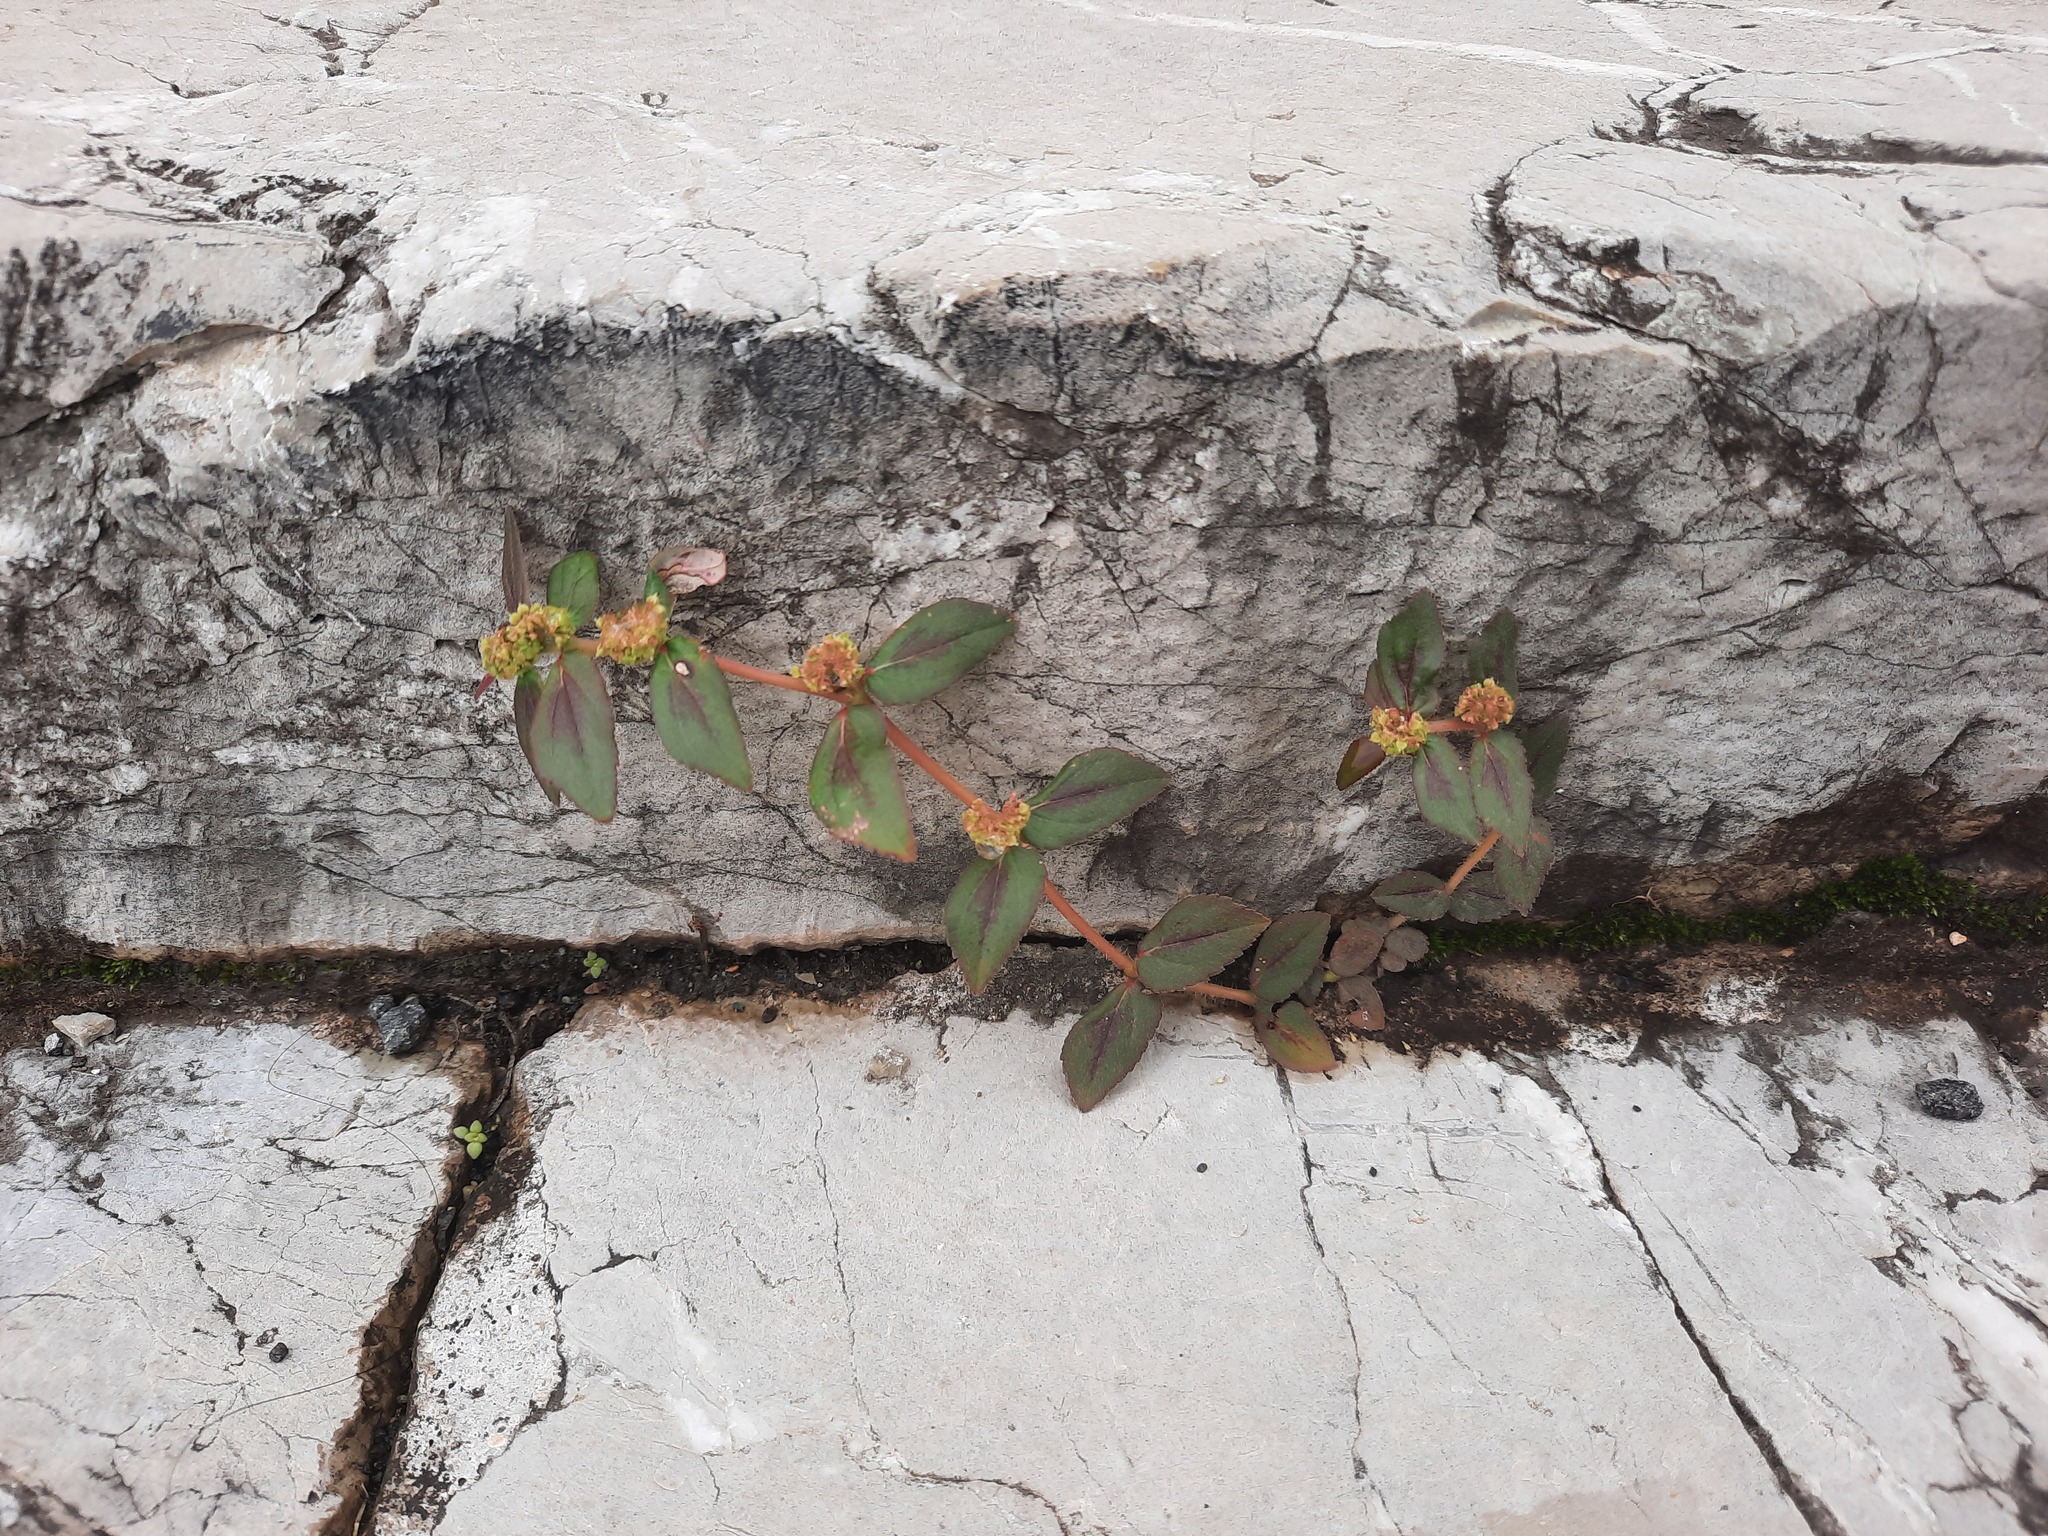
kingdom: Plantae
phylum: Tracheophyta
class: Magnoliopsida
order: Malpighiales
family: Euphorbiaceae
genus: Euphorbia
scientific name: Euphorbia hirta
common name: Pillpod sandmat
